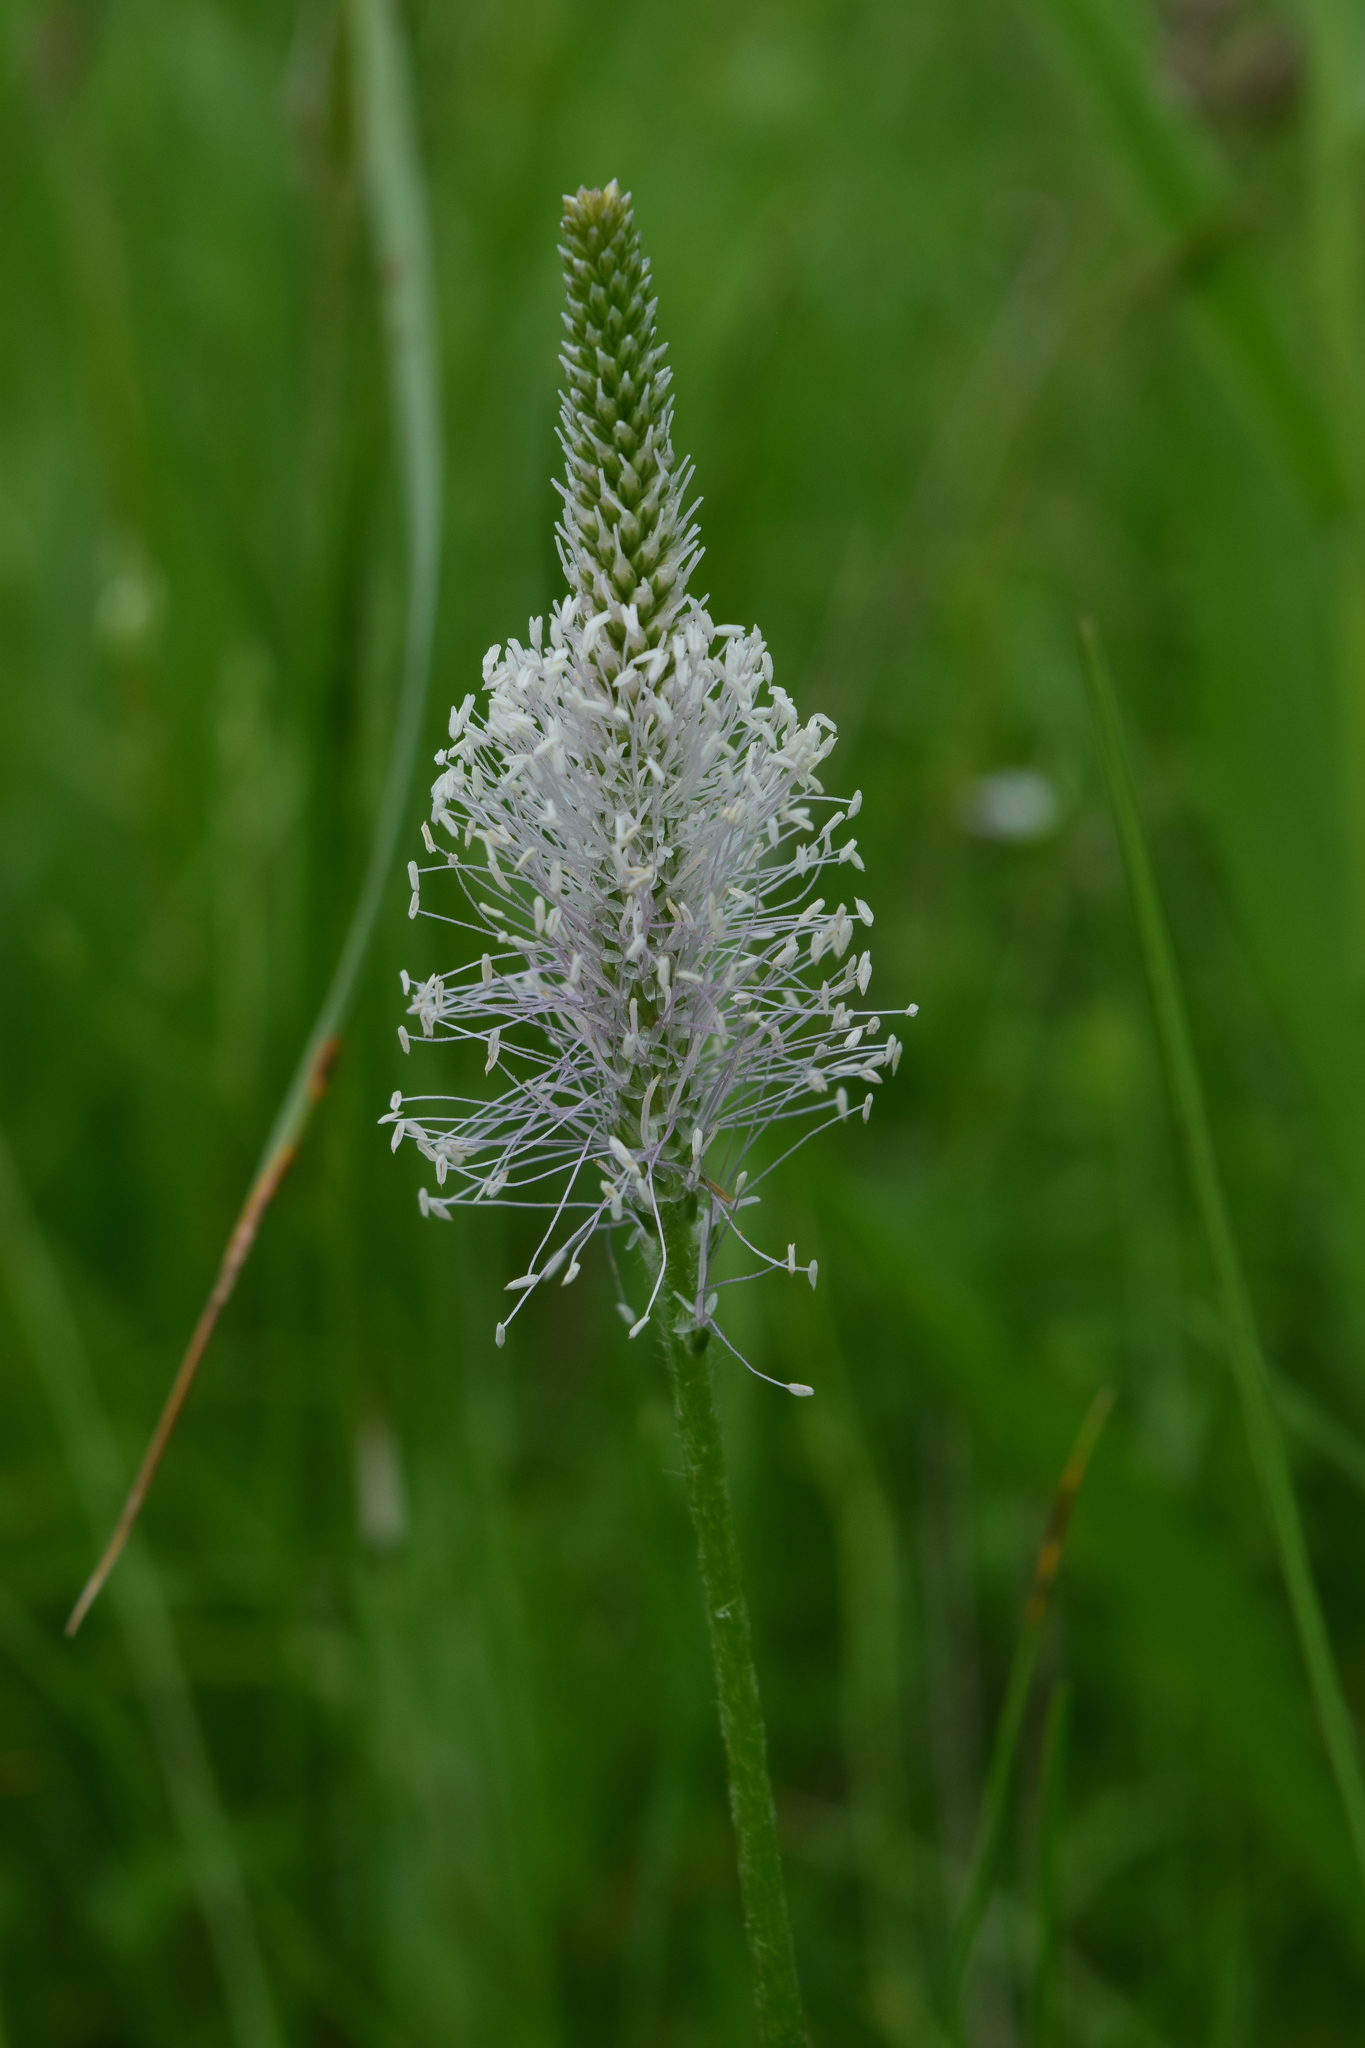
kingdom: Plantae
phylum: Tracheophyta
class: Magnoliopsida
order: Lamiales
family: Plantaginaceae
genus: Plantago
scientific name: Plantago media
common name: Hoary plantain
